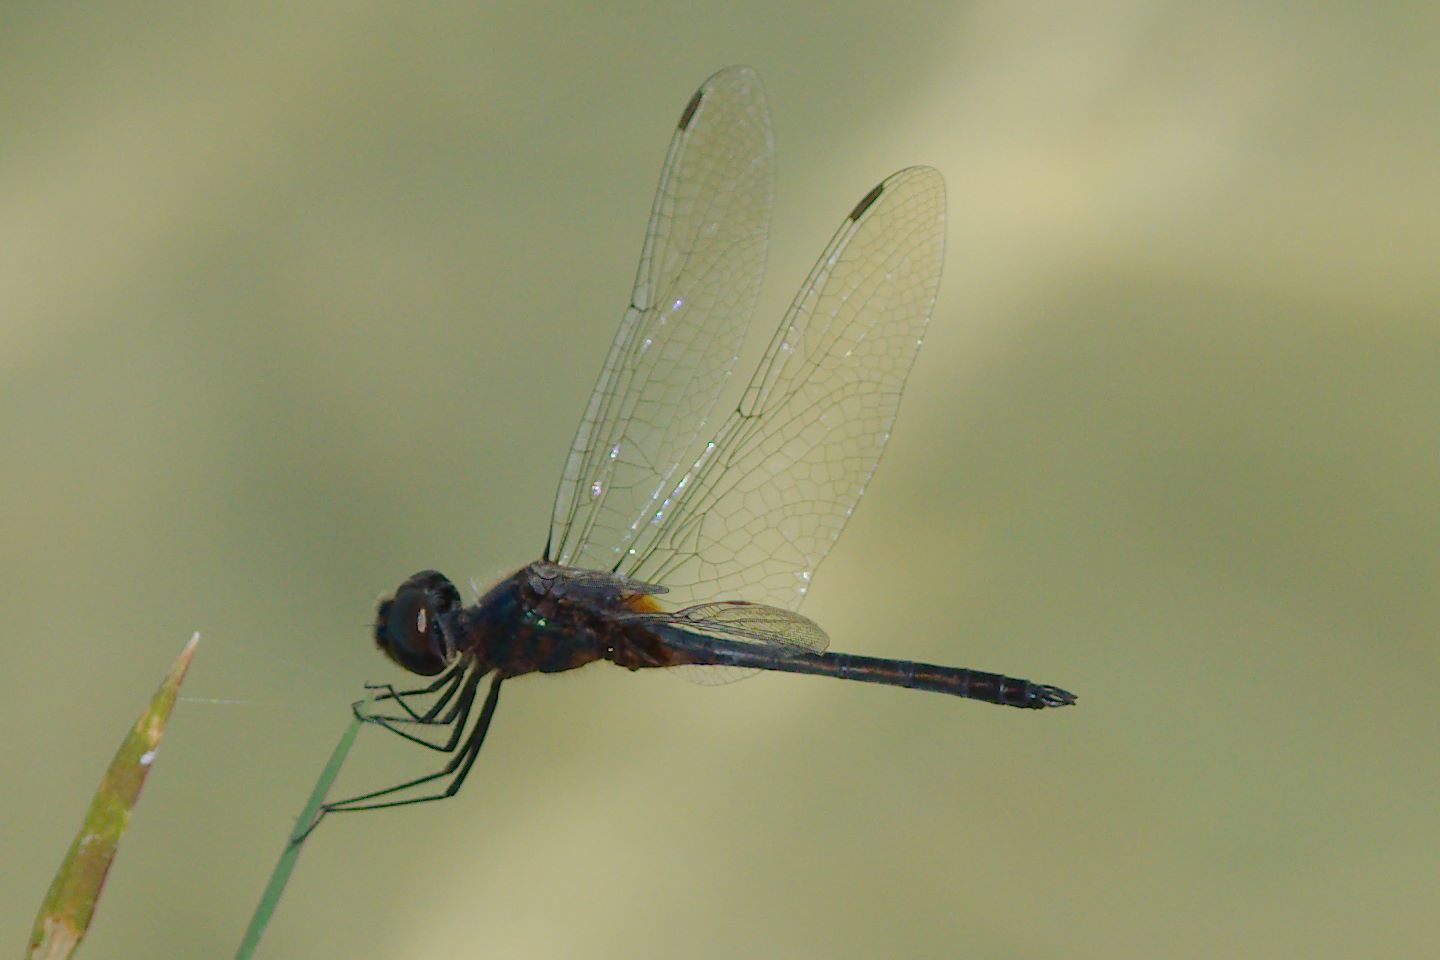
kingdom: Animalia
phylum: Arthropoda
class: Insecta
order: Odonata
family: Libellulidae
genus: Idiataphe
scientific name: Idiataphe cubensis
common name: Metallic pennant
